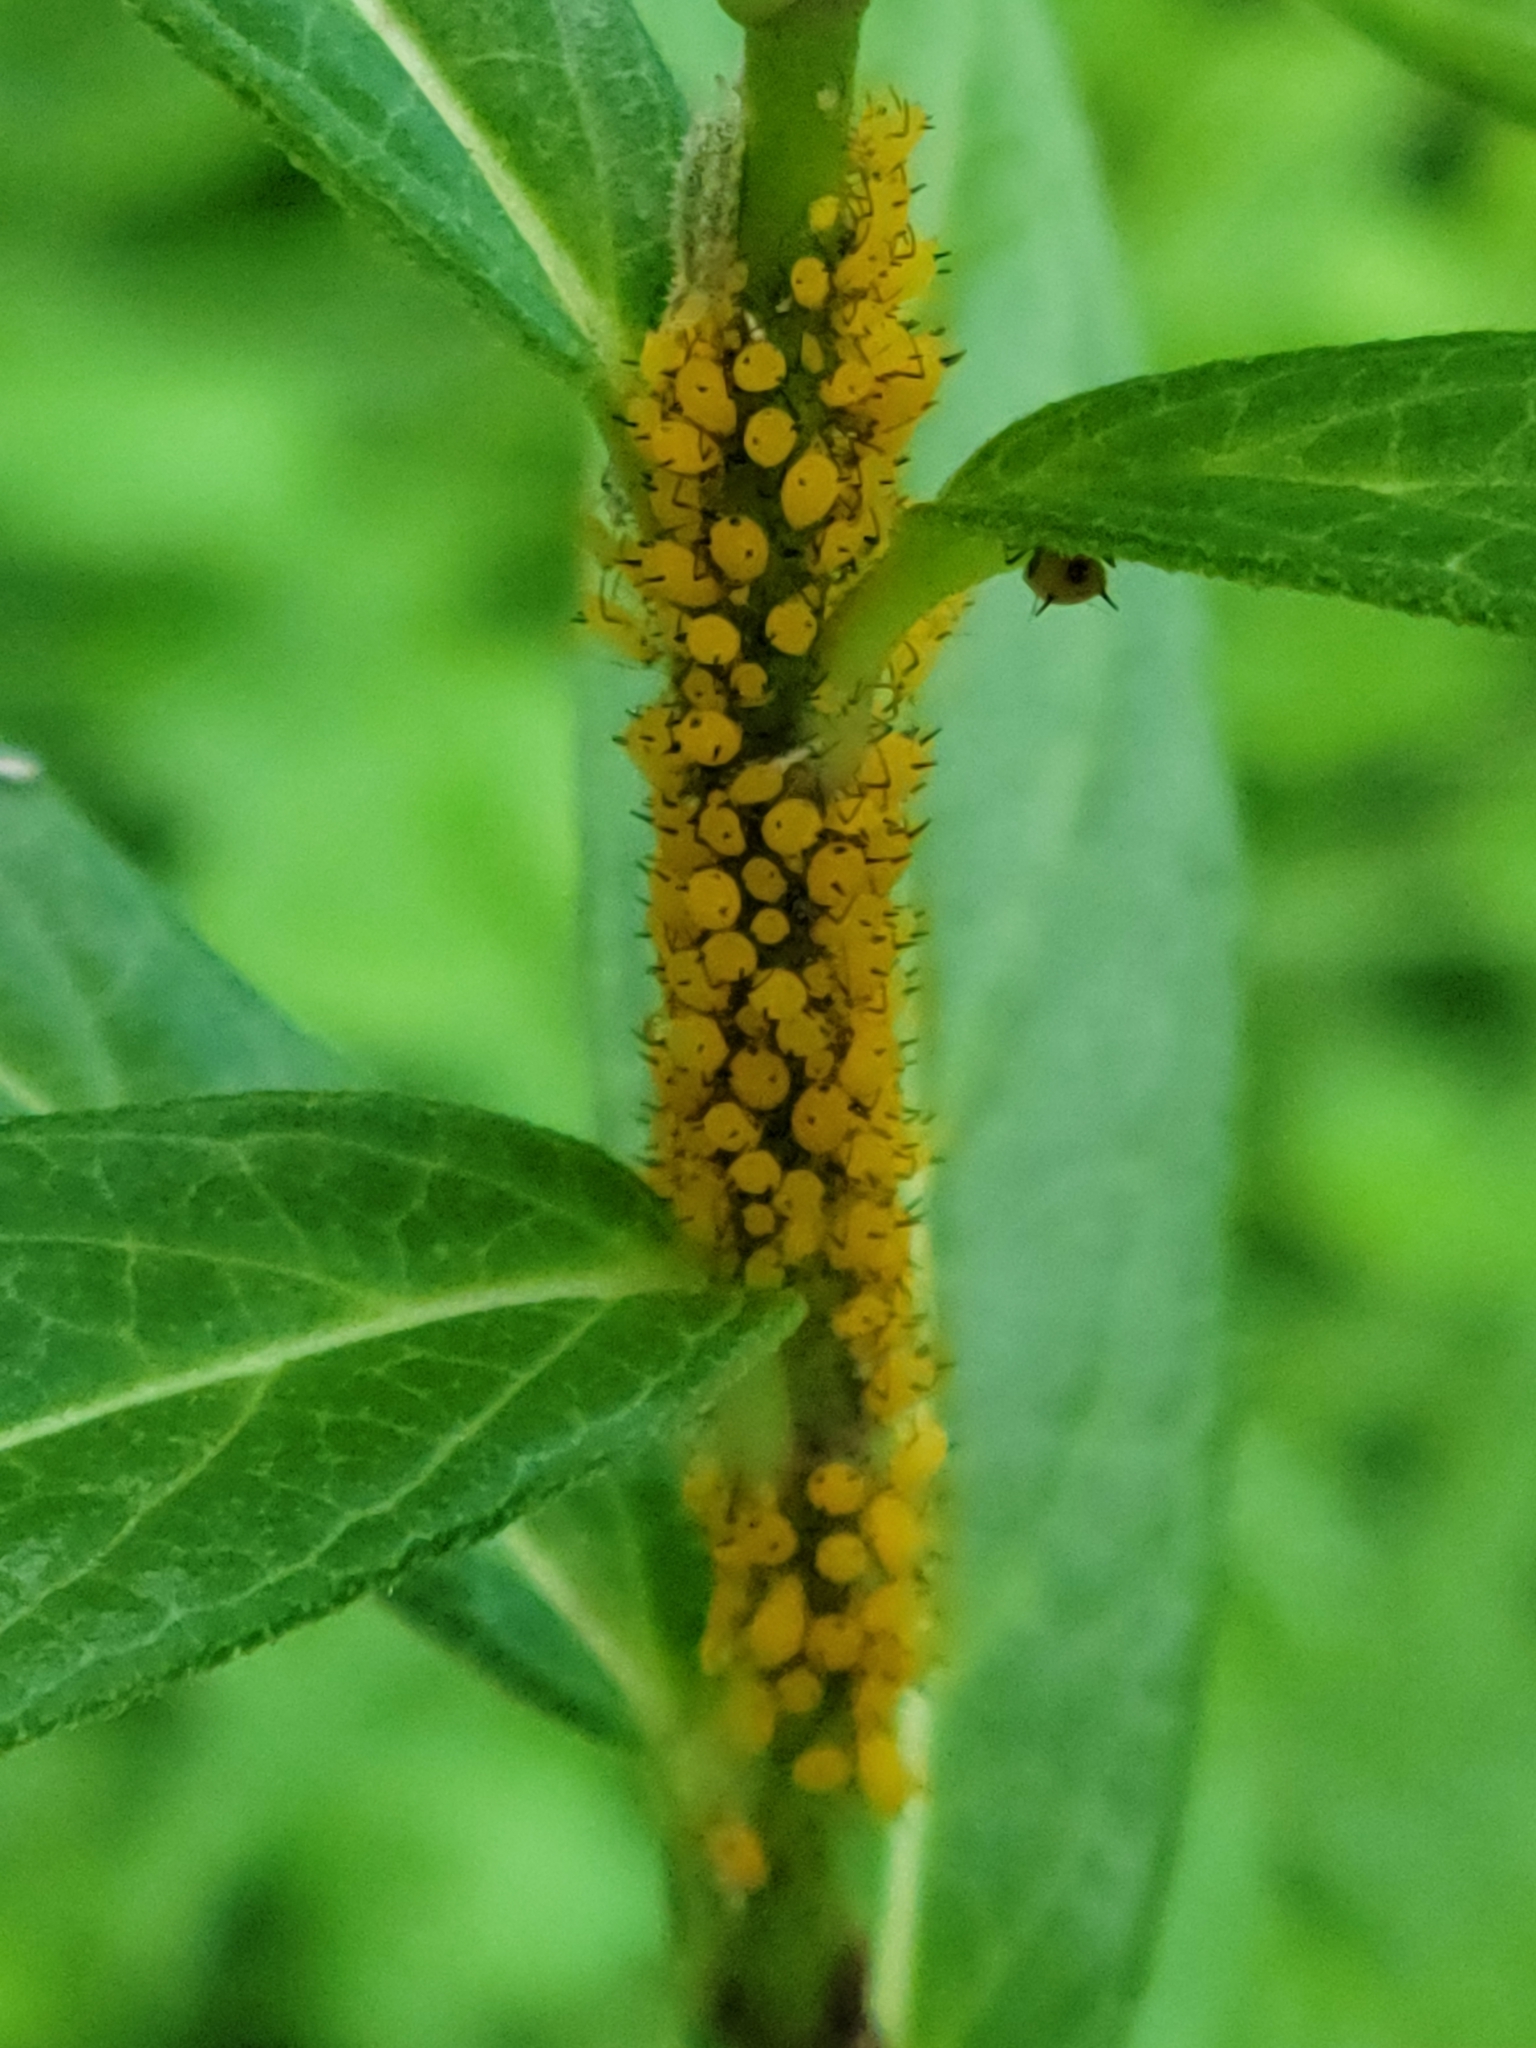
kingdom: Animalia
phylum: Arthropoda
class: Insecta
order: Hemiptera
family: Aphididae
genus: Aphis
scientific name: Aphis nerii
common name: Oleander aphid
